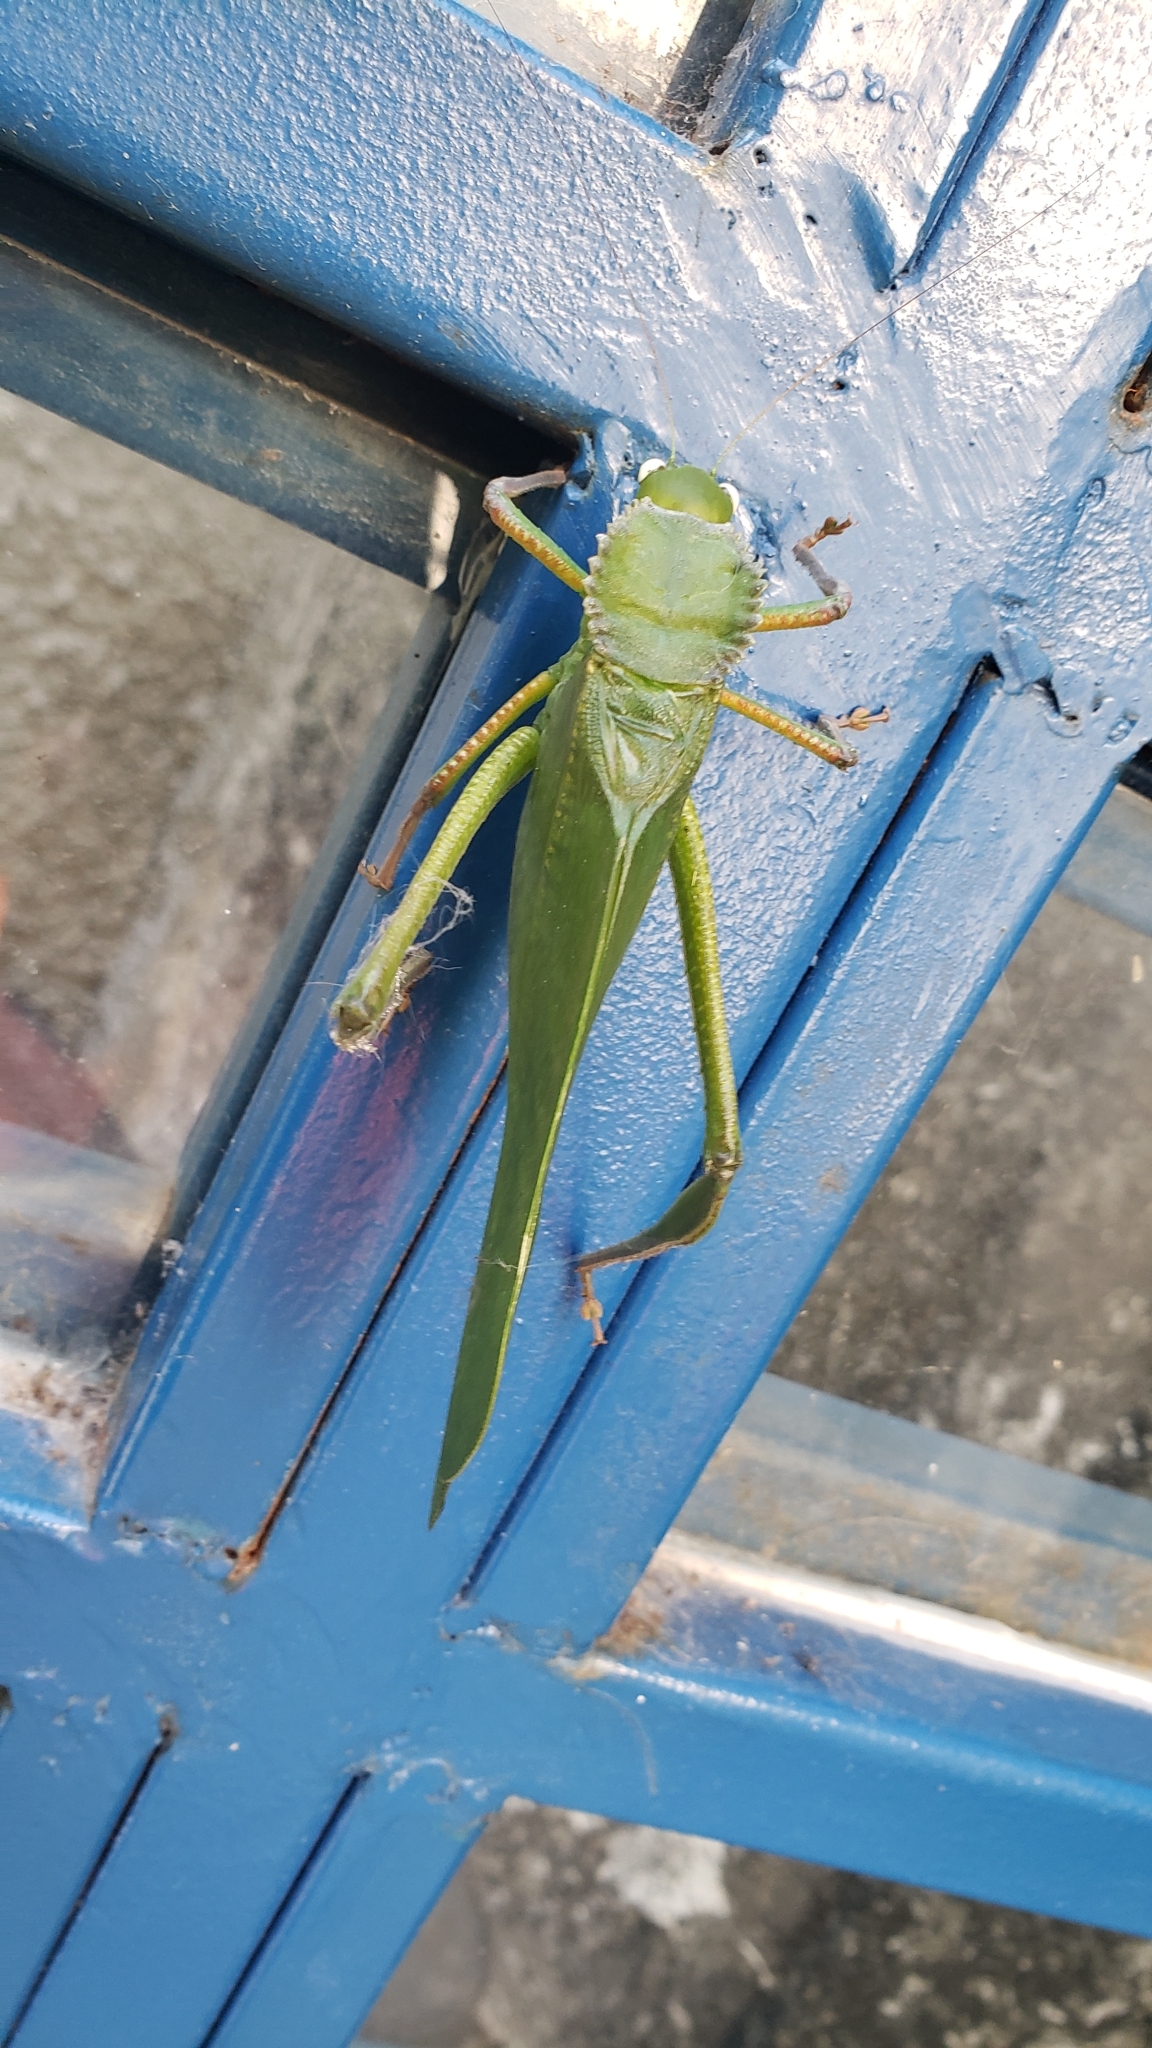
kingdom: Animalia
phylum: Arthropoda
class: Insecta
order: Orthoptera
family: Tettigoniidae
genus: Steirodon
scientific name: Steirodon dentatum
